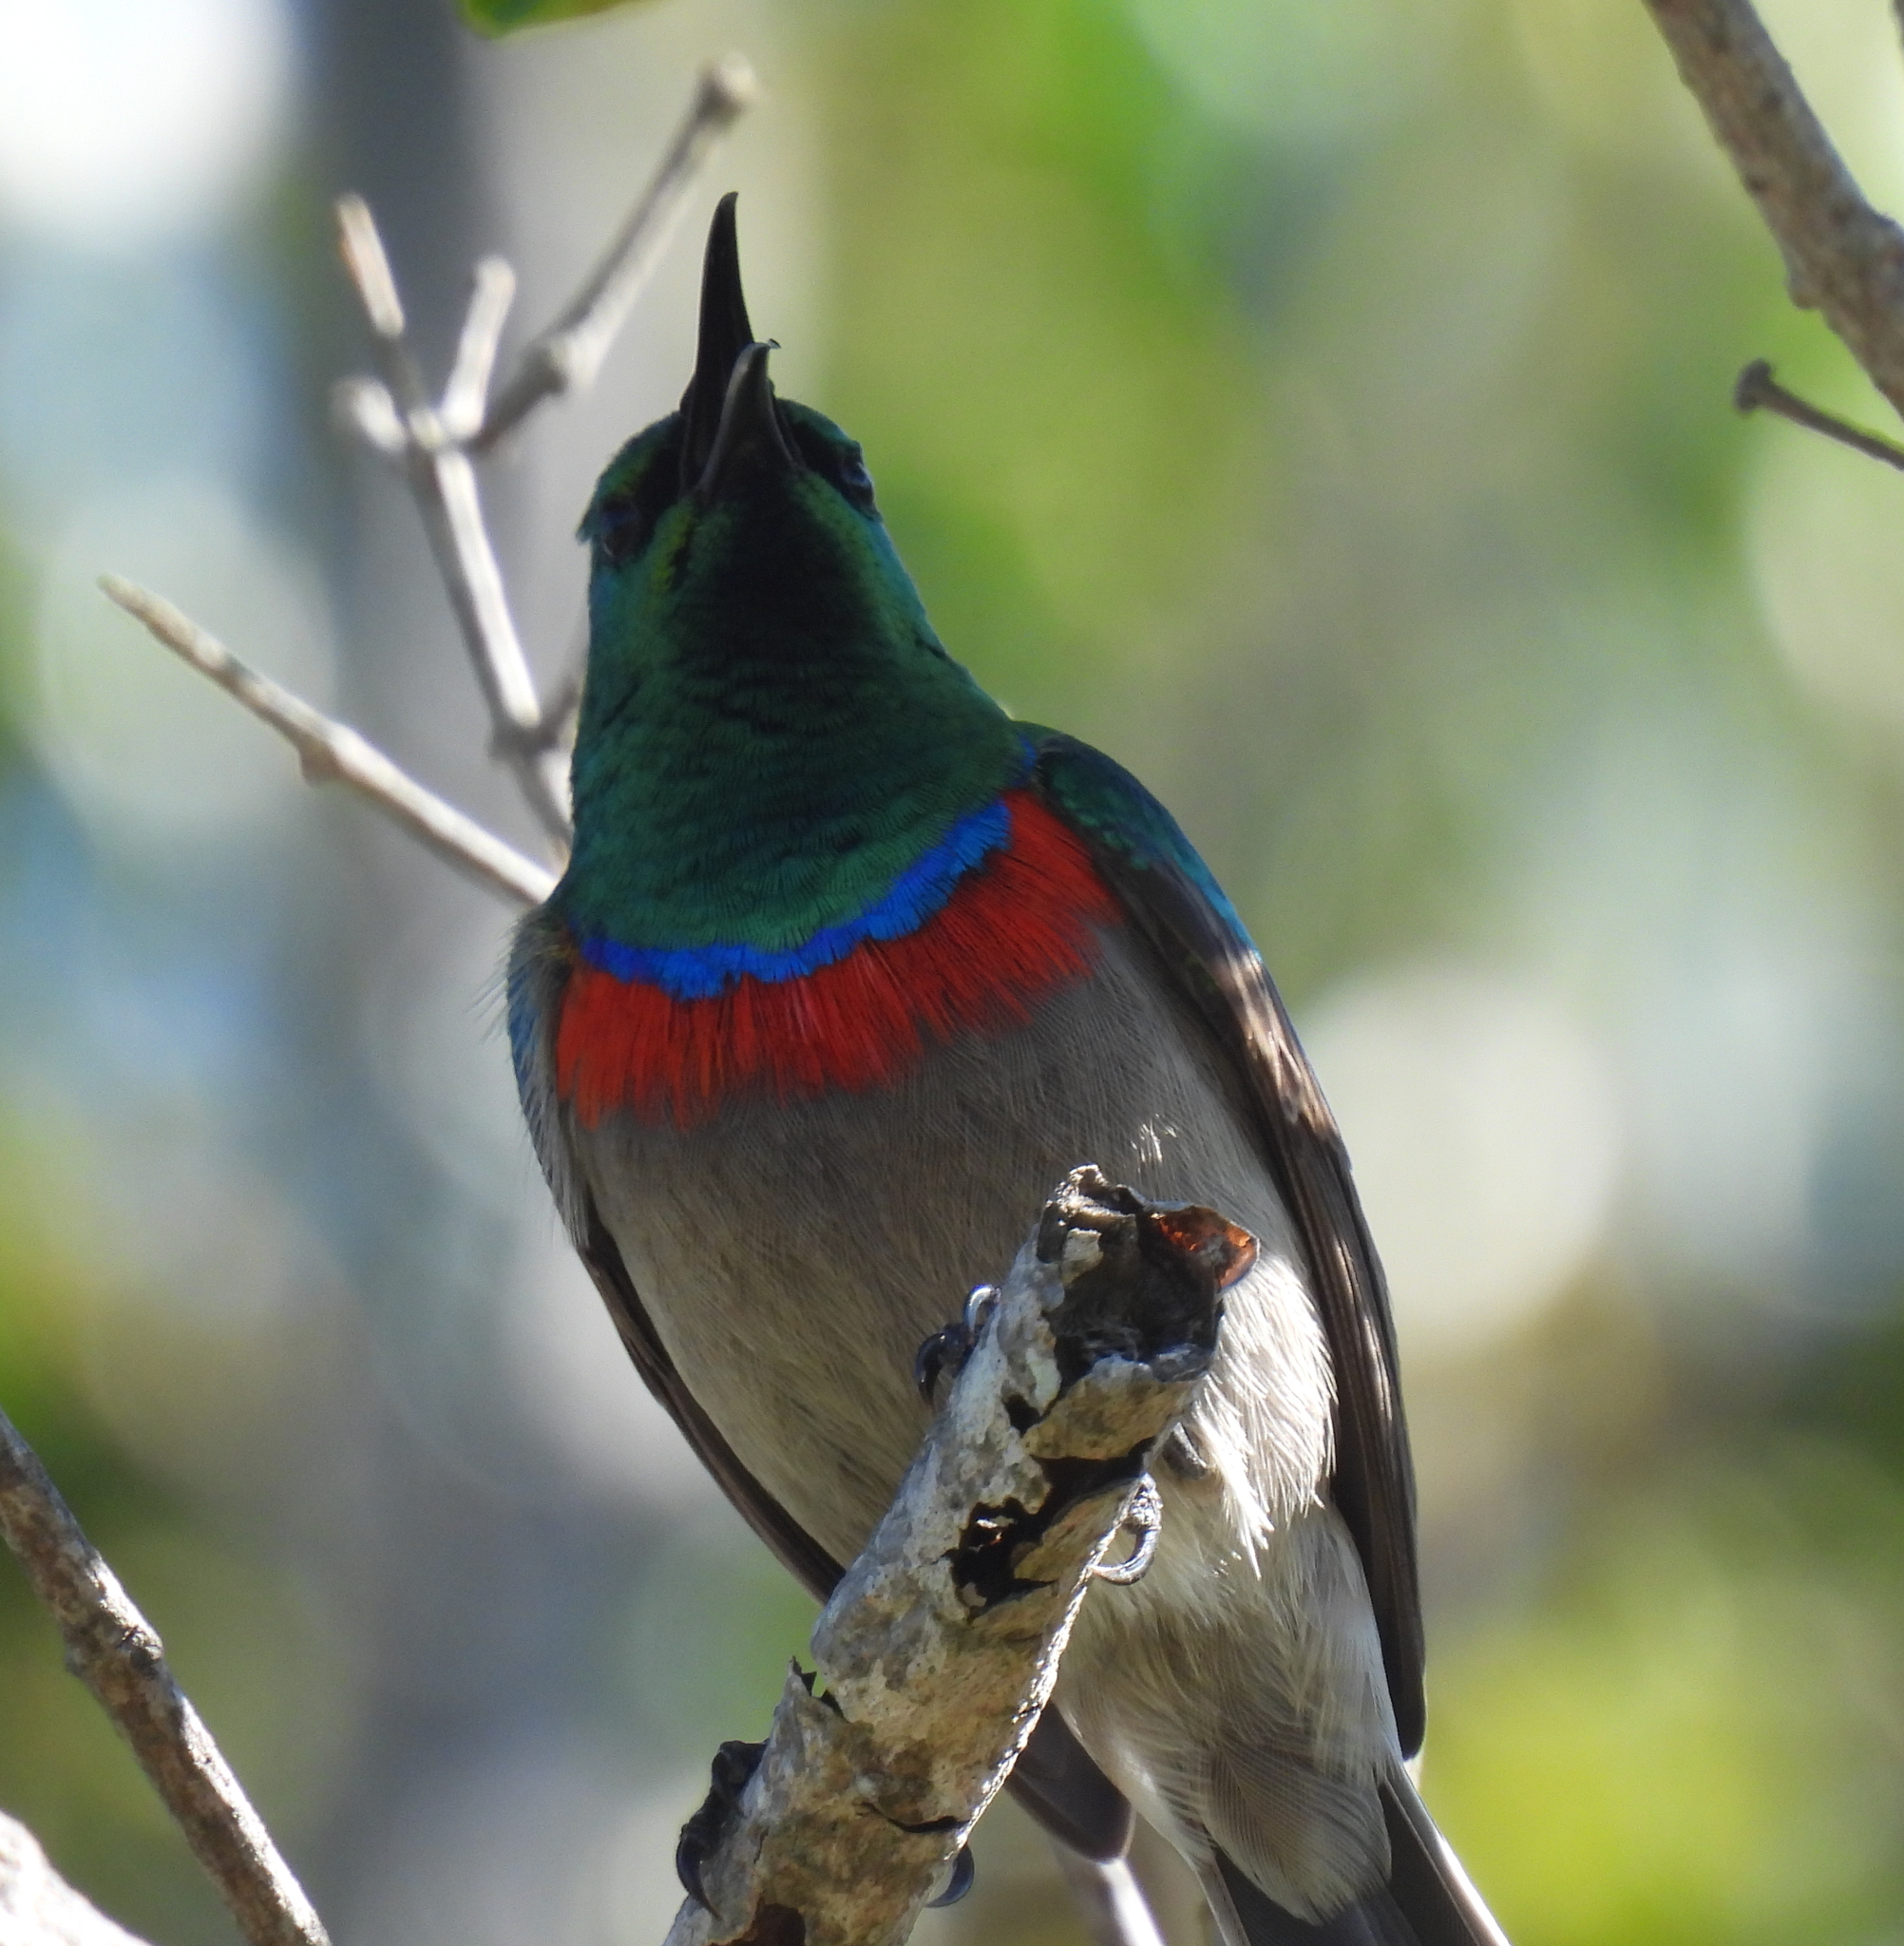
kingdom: Animalia
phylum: Chordata
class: Aves
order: Passeriformes
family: Nectariniidae
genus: Cinnyris
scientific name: Cinnyris chalybeus
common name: Southern double-collared sunbird
